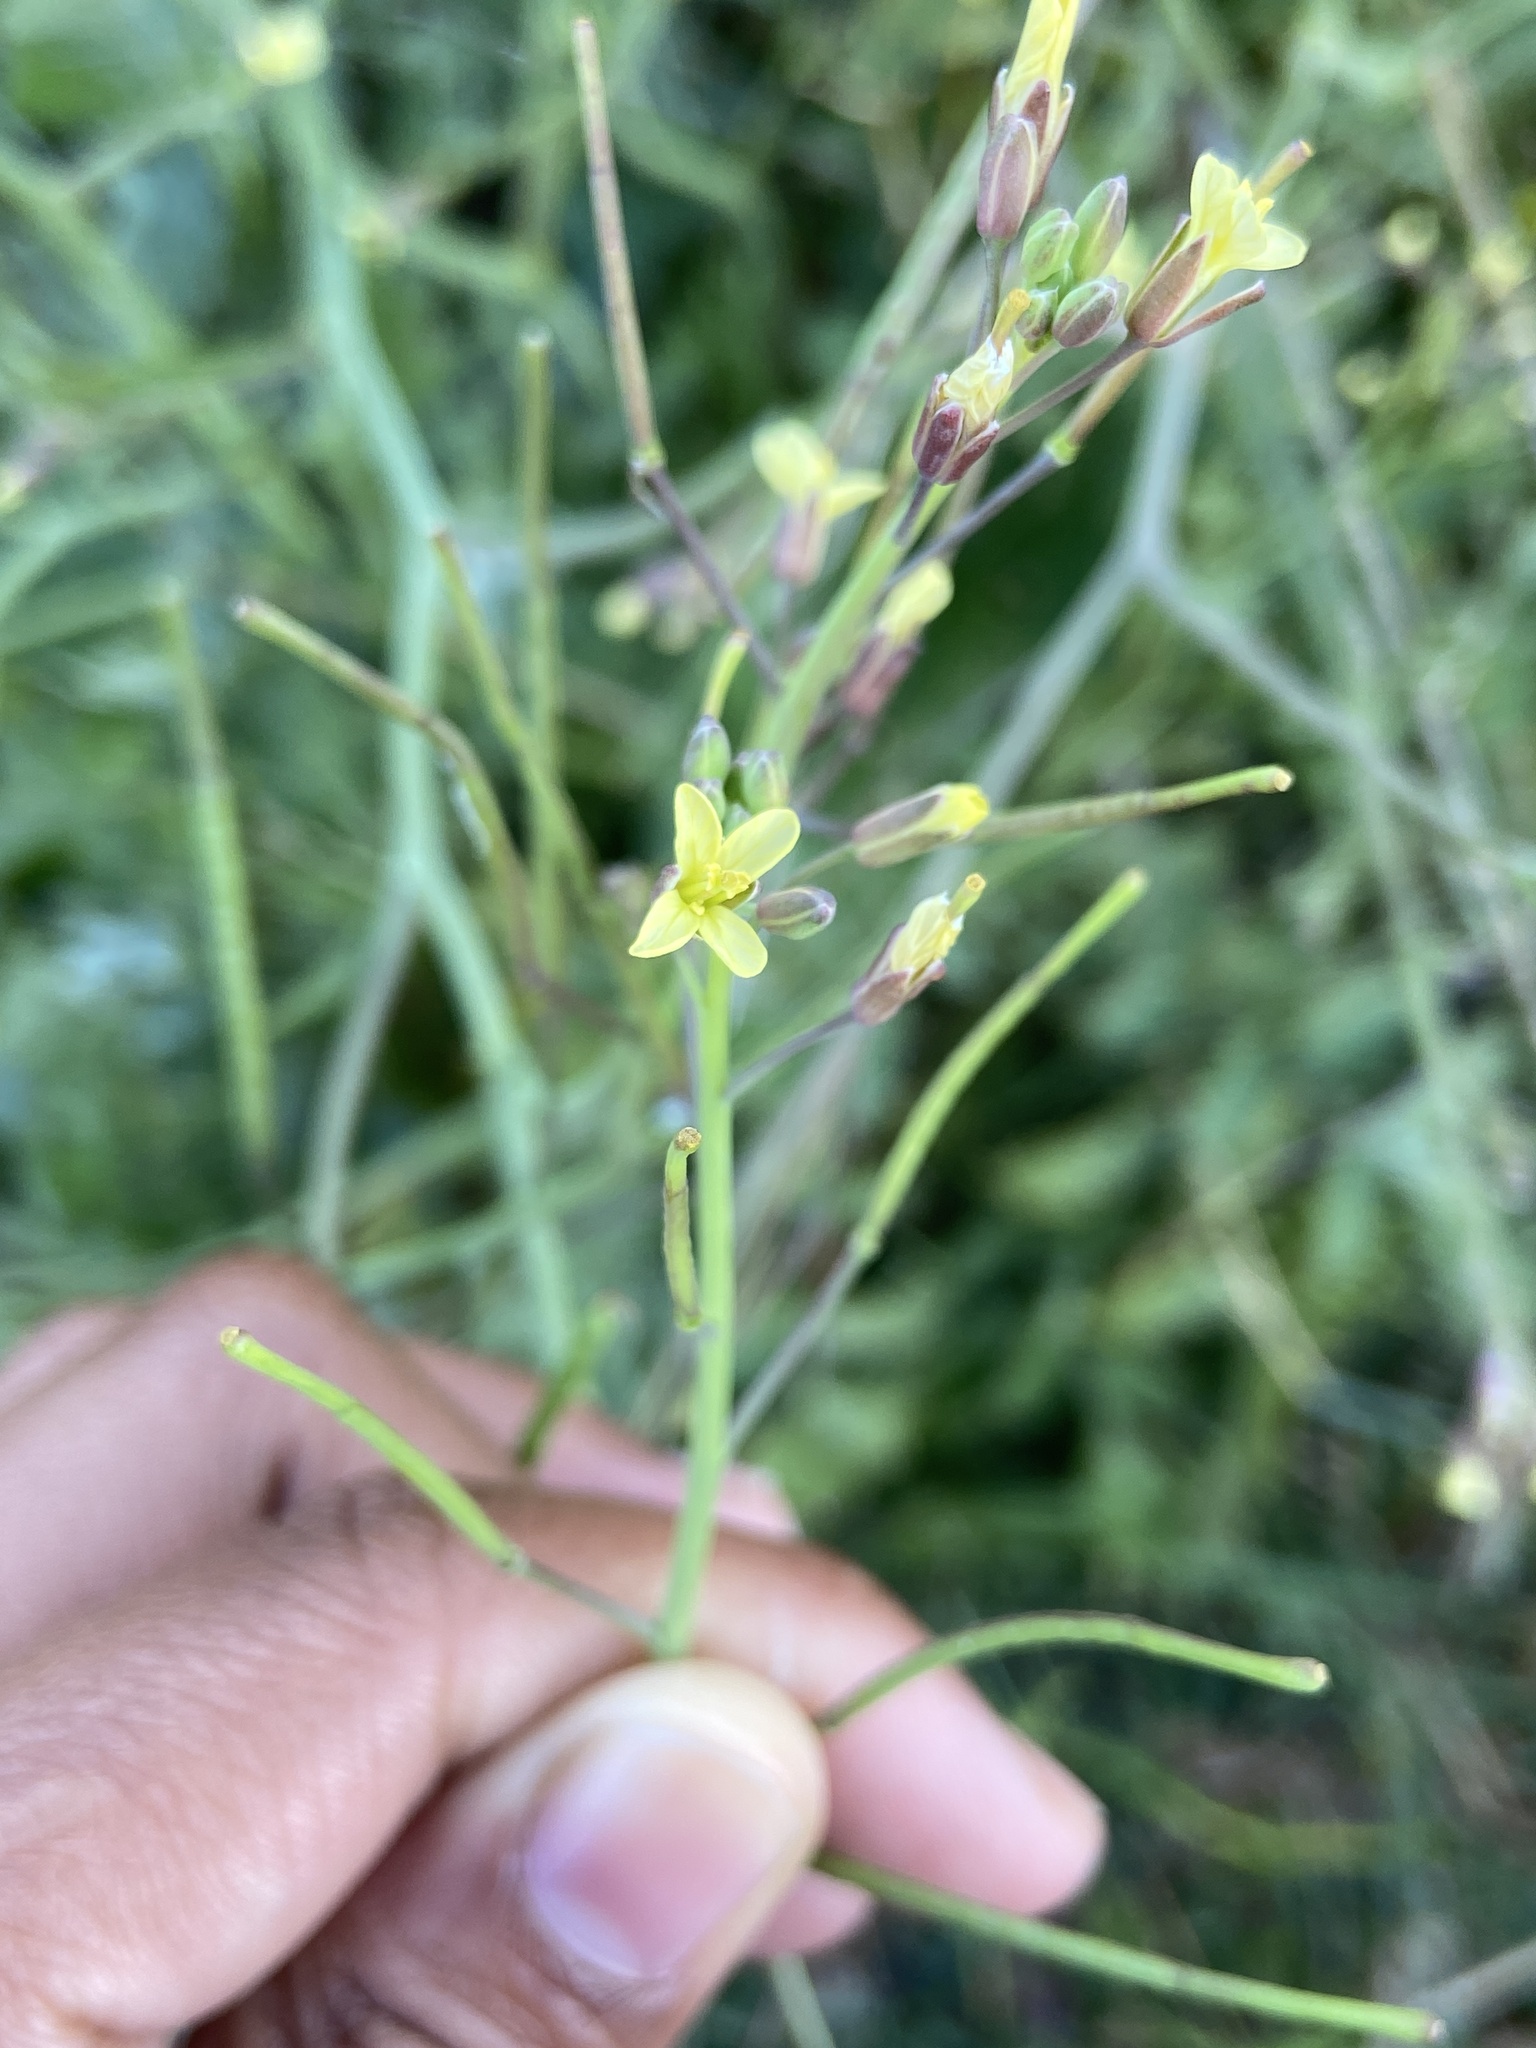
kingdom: Plantae
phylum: Tracheophyta
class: Magnoliopsida
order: Brassicales
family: Brassicaceae
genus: Brassica
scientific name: Brassica tournefortii
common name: Pale cabbage
